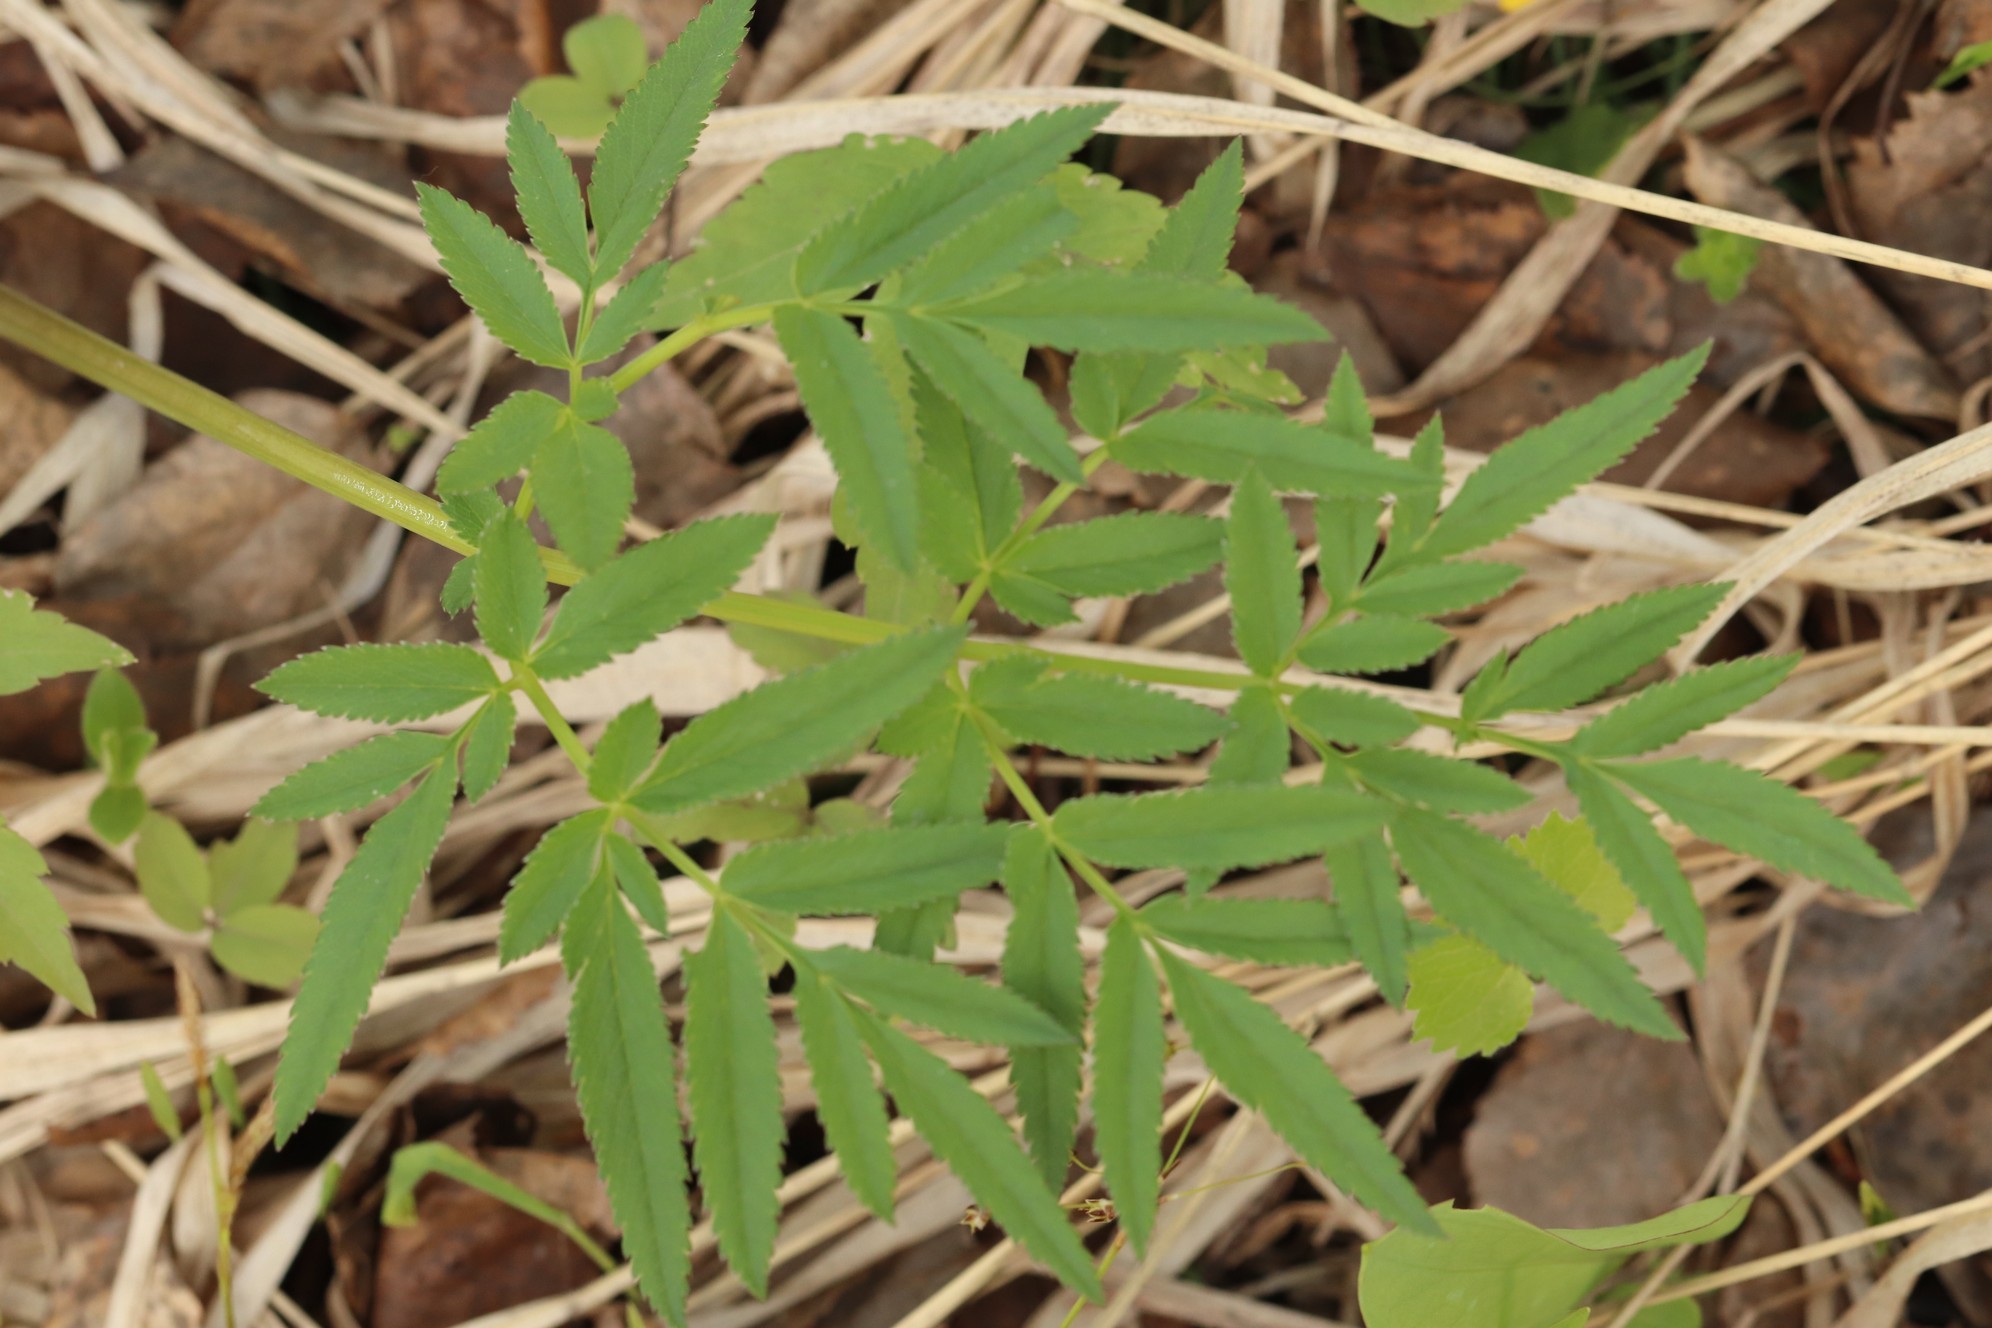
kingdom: Plantae
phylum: Tracheophyta
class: Magnoliopsida
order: Apiales
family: Apiaceae
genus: Angelica
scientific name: Angelica sylvestris
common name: Wild angelica
